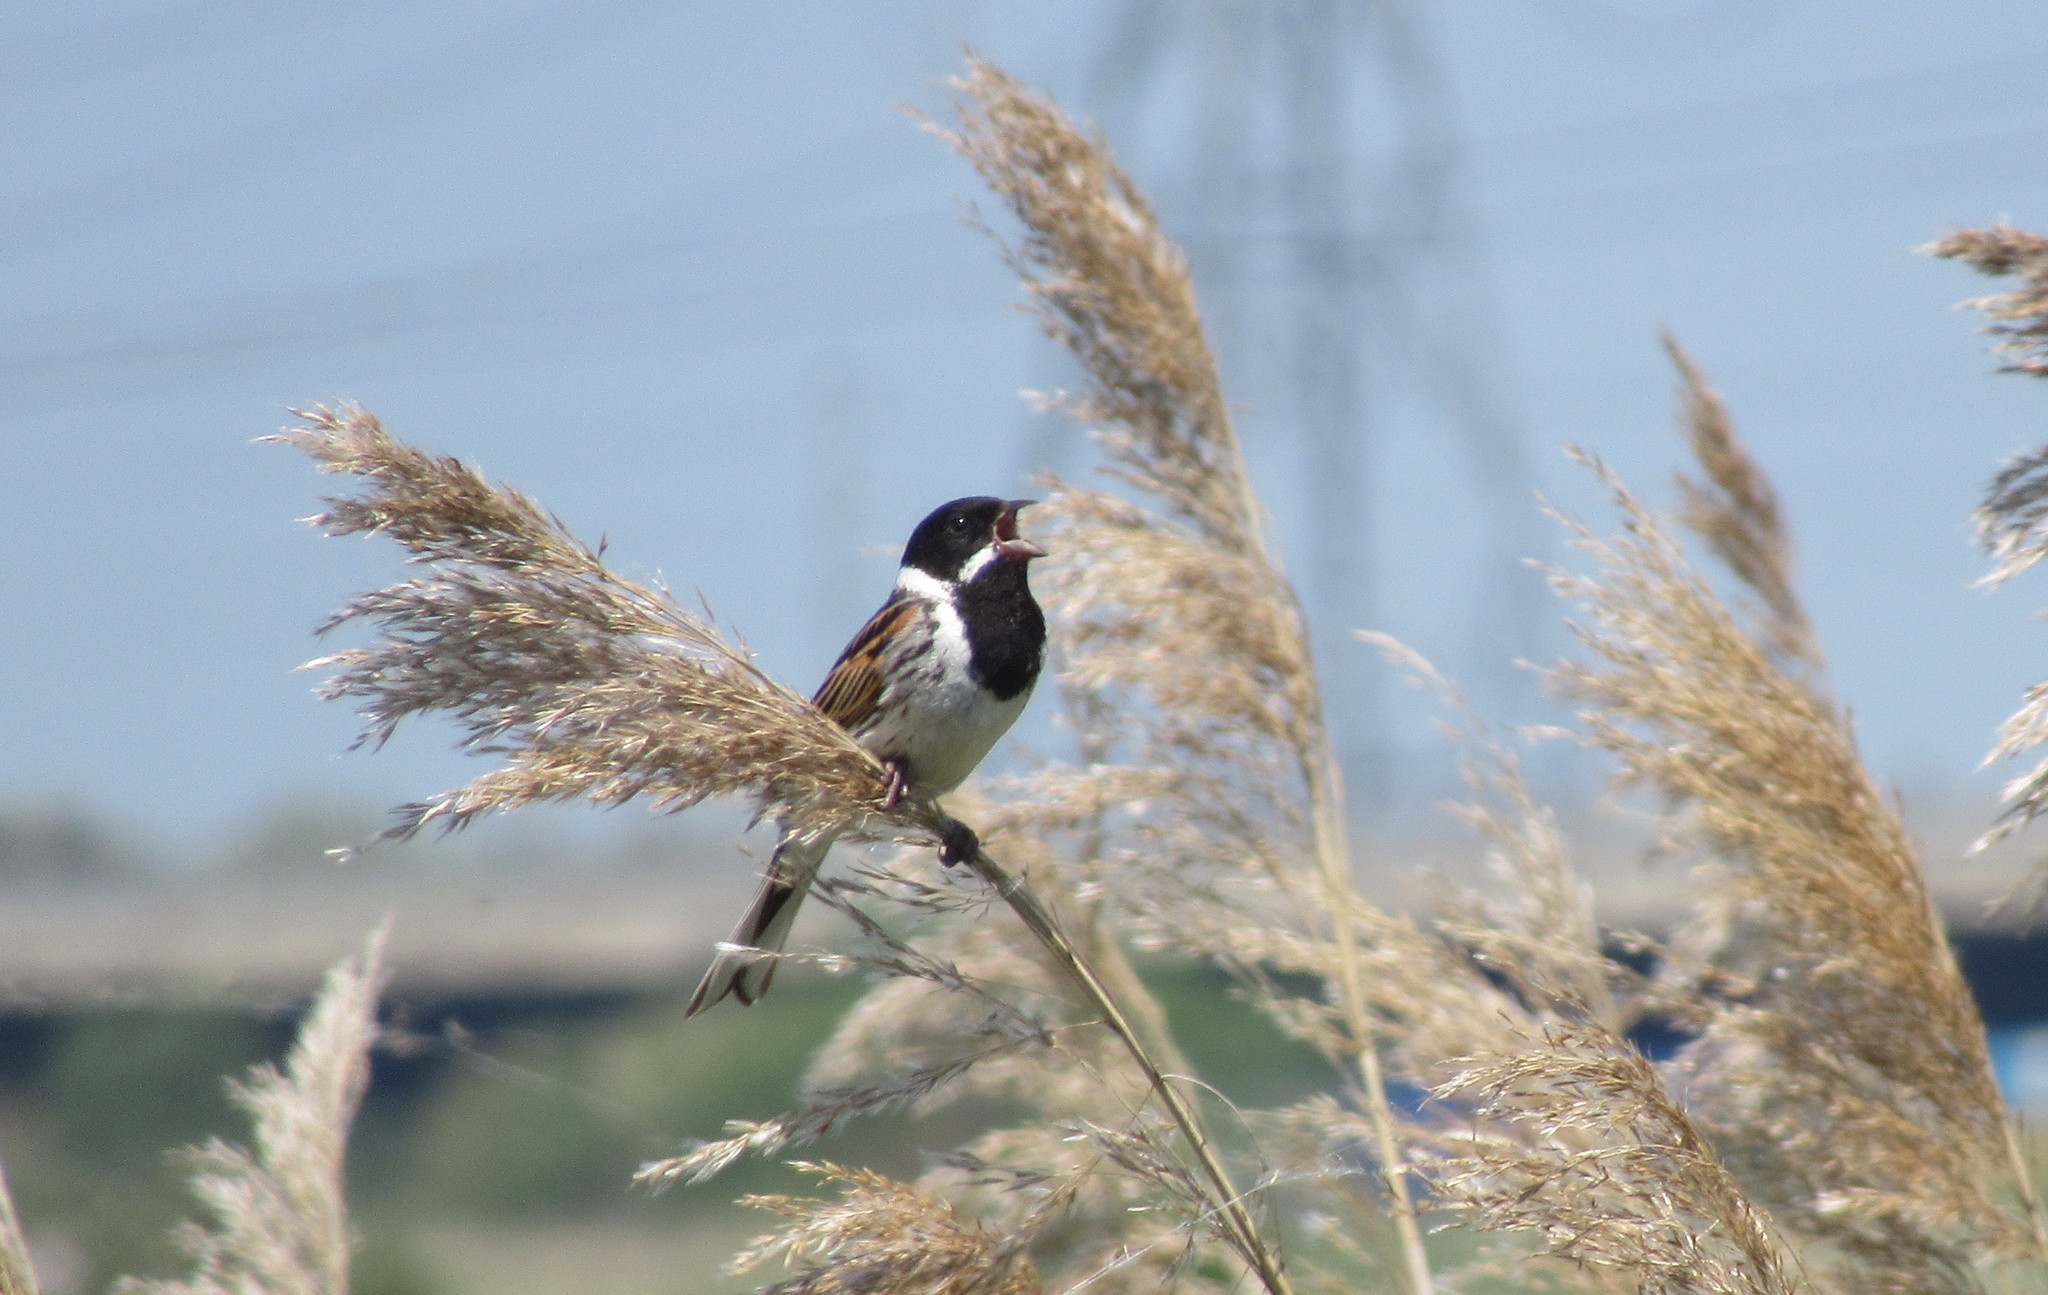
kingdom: Animalia
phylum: Chordata
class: Aves
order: Passeriformes
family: Emberizidae
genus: Emberiza
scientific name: Emberiza schoeniclus
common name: Reed bunting
